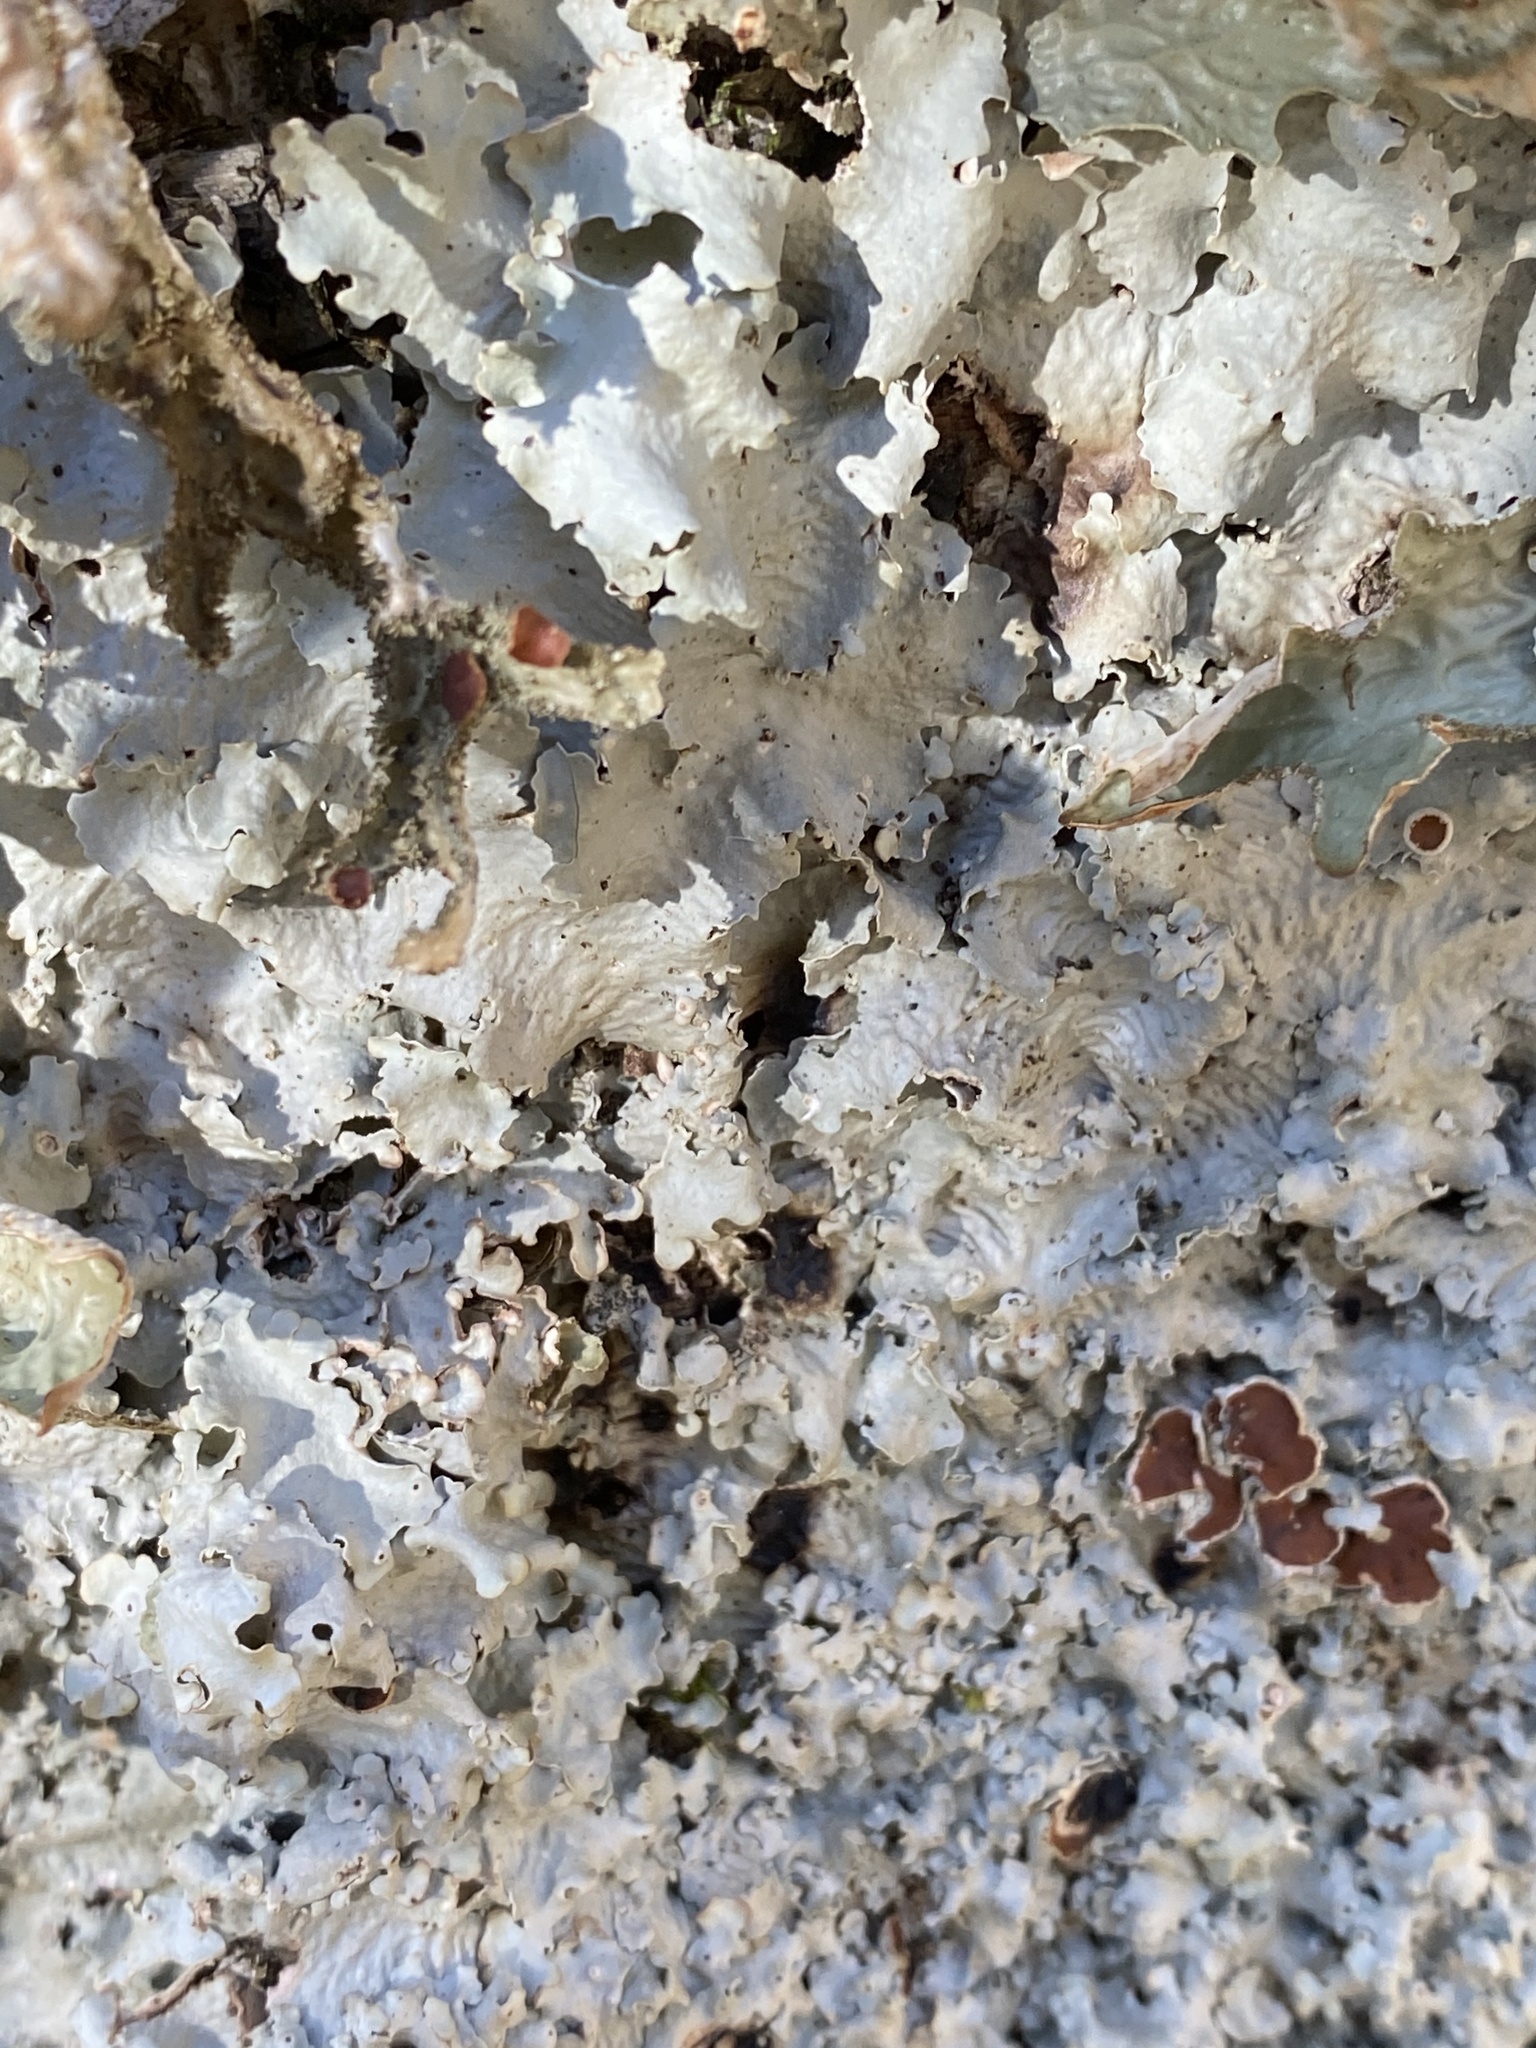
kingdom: Fungi
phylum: Ascomycota
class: Lecanoromycetes
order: Peltigerales
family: Lobariaceae
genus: Ricasolia
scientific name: Ricasolia quercizans
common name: Smooth lungwort
